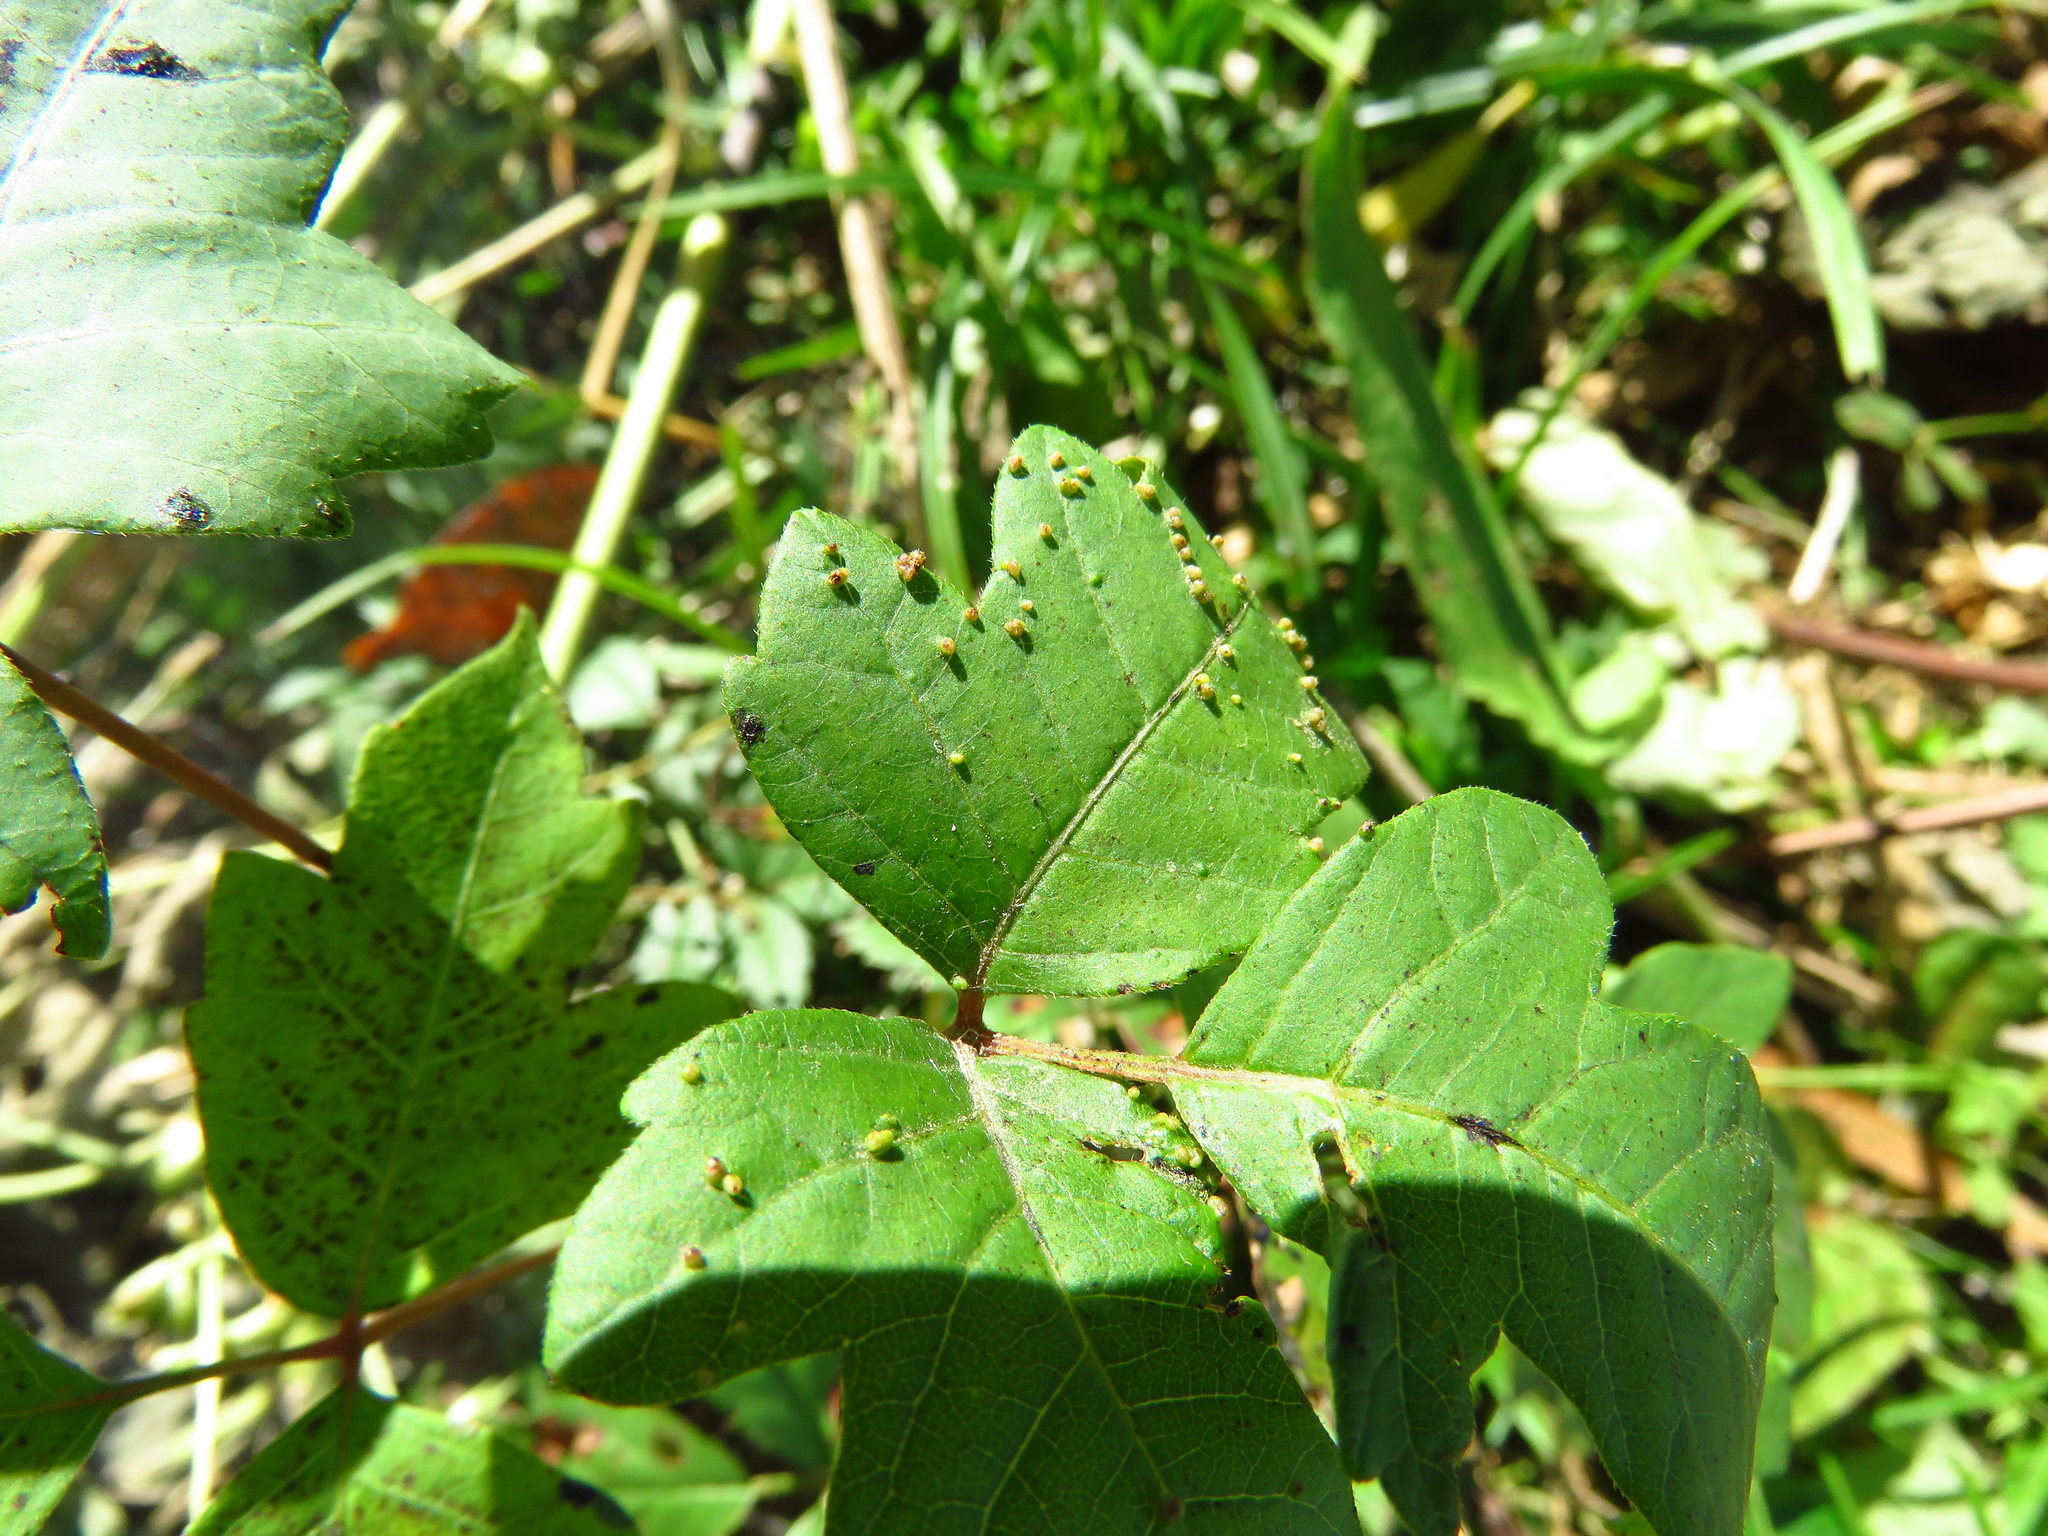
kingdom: Animalia
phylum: Arthropoda
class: Arachnida
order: Trombidiformes
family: Eriophyidae
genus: Aculops
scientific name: Aculops
